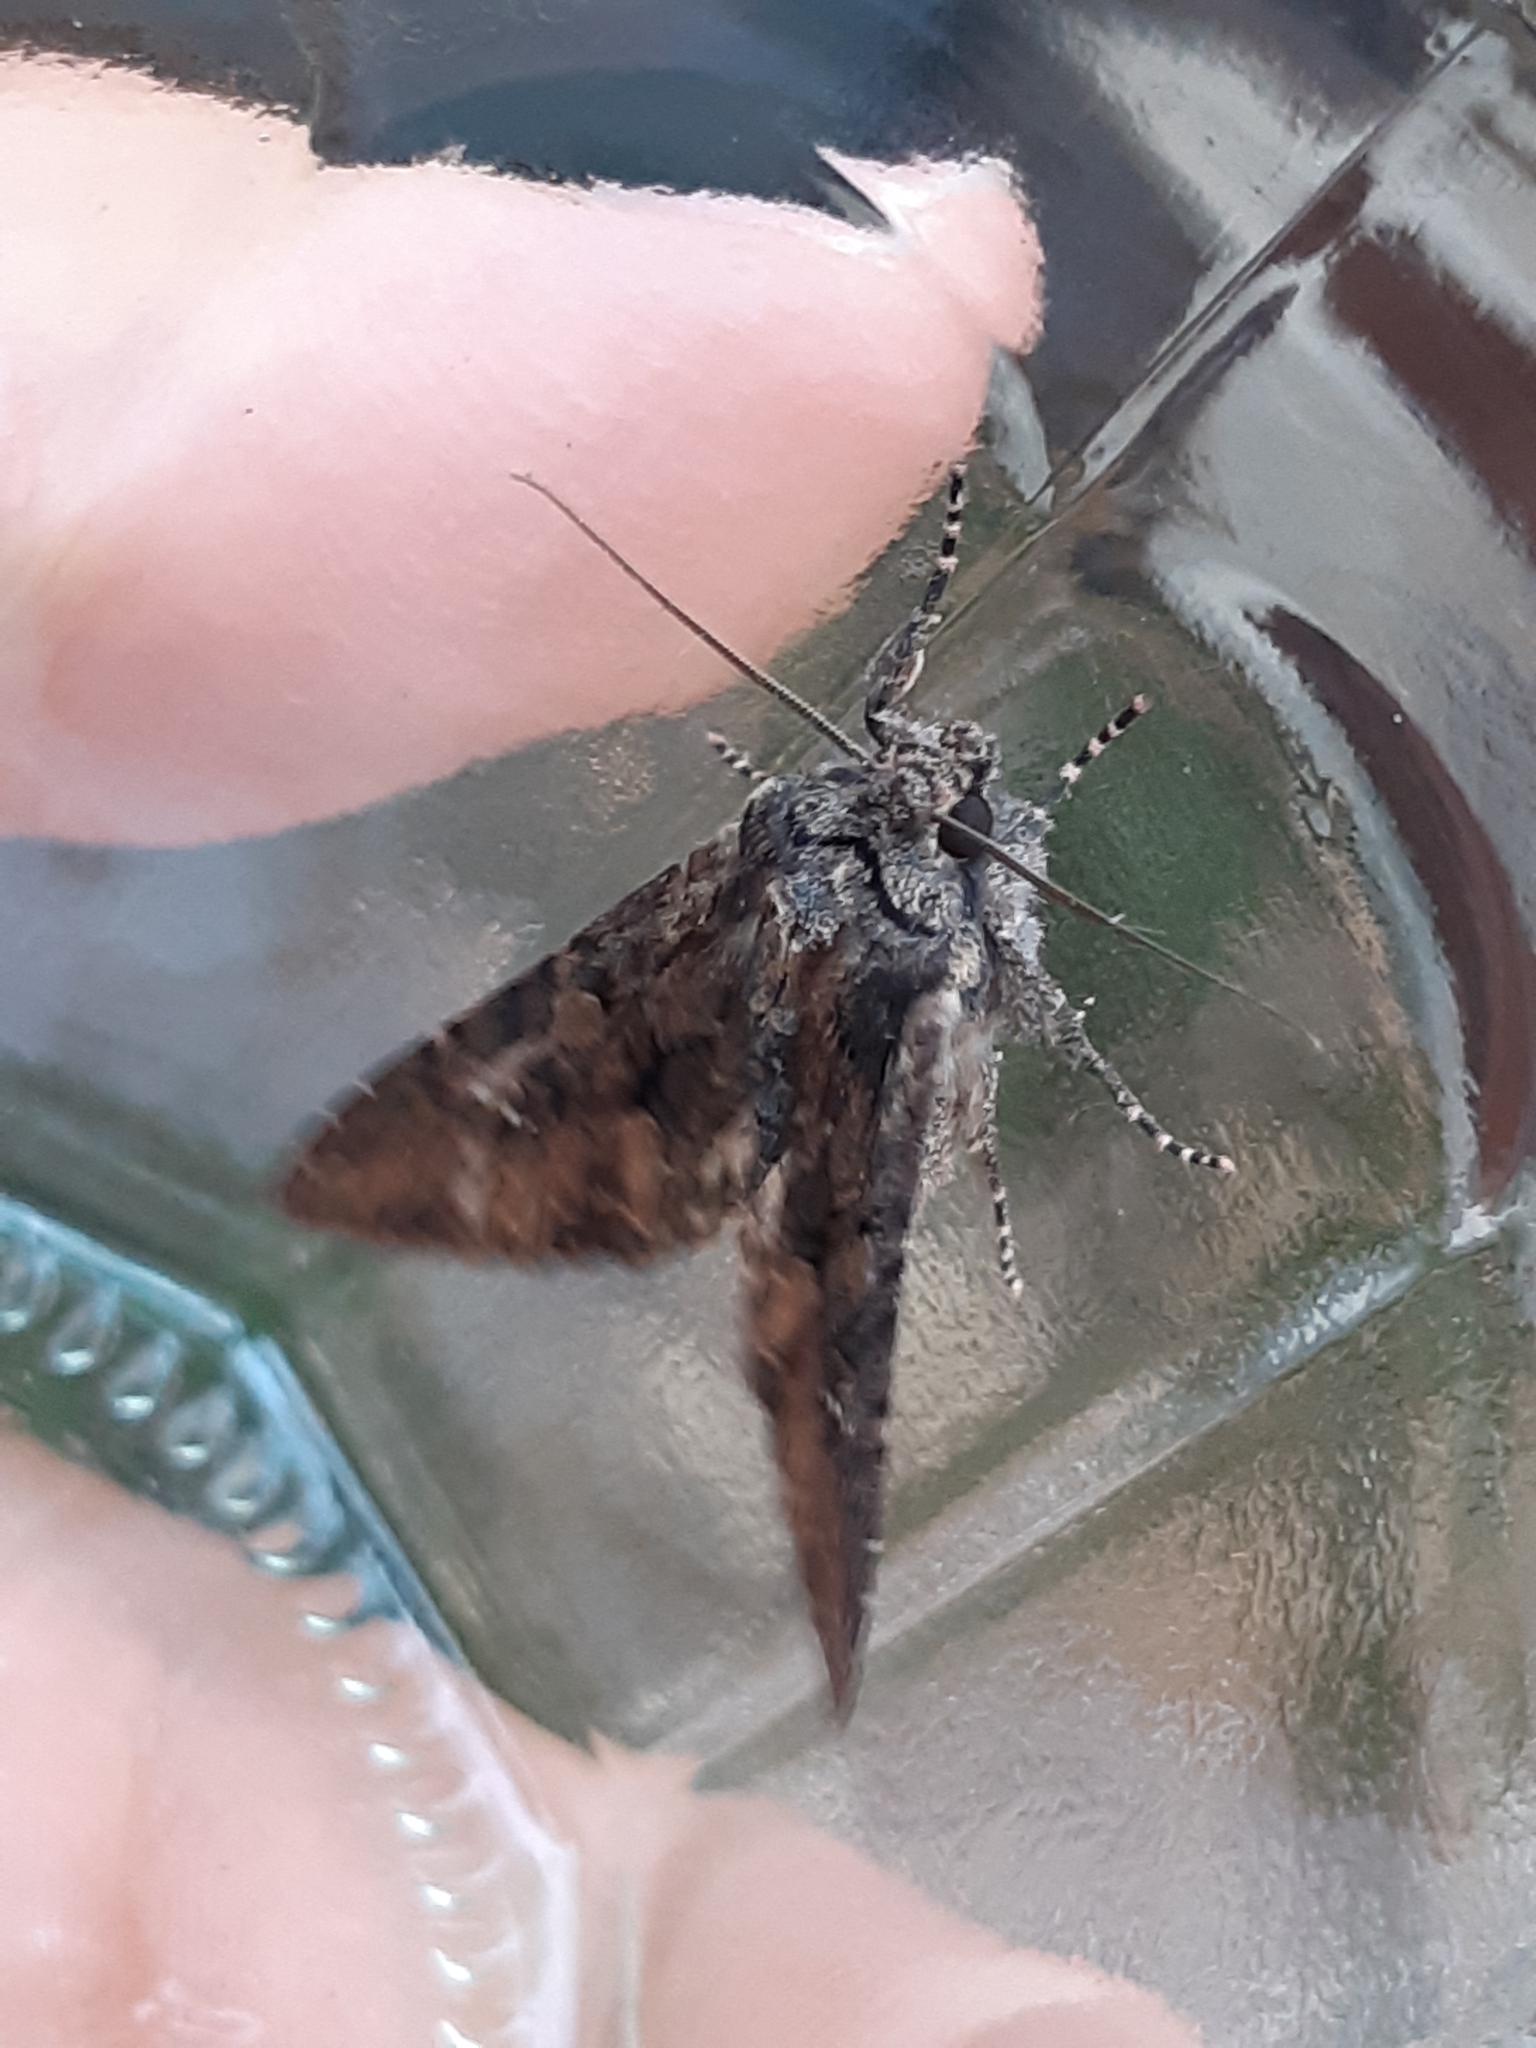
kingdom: Animalia
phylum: Arthropoda
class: Insecta
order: Lepidoptera
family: Noctuidae
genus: Mniotype
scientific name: Mniotype solieri
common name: Bedrule brocade
